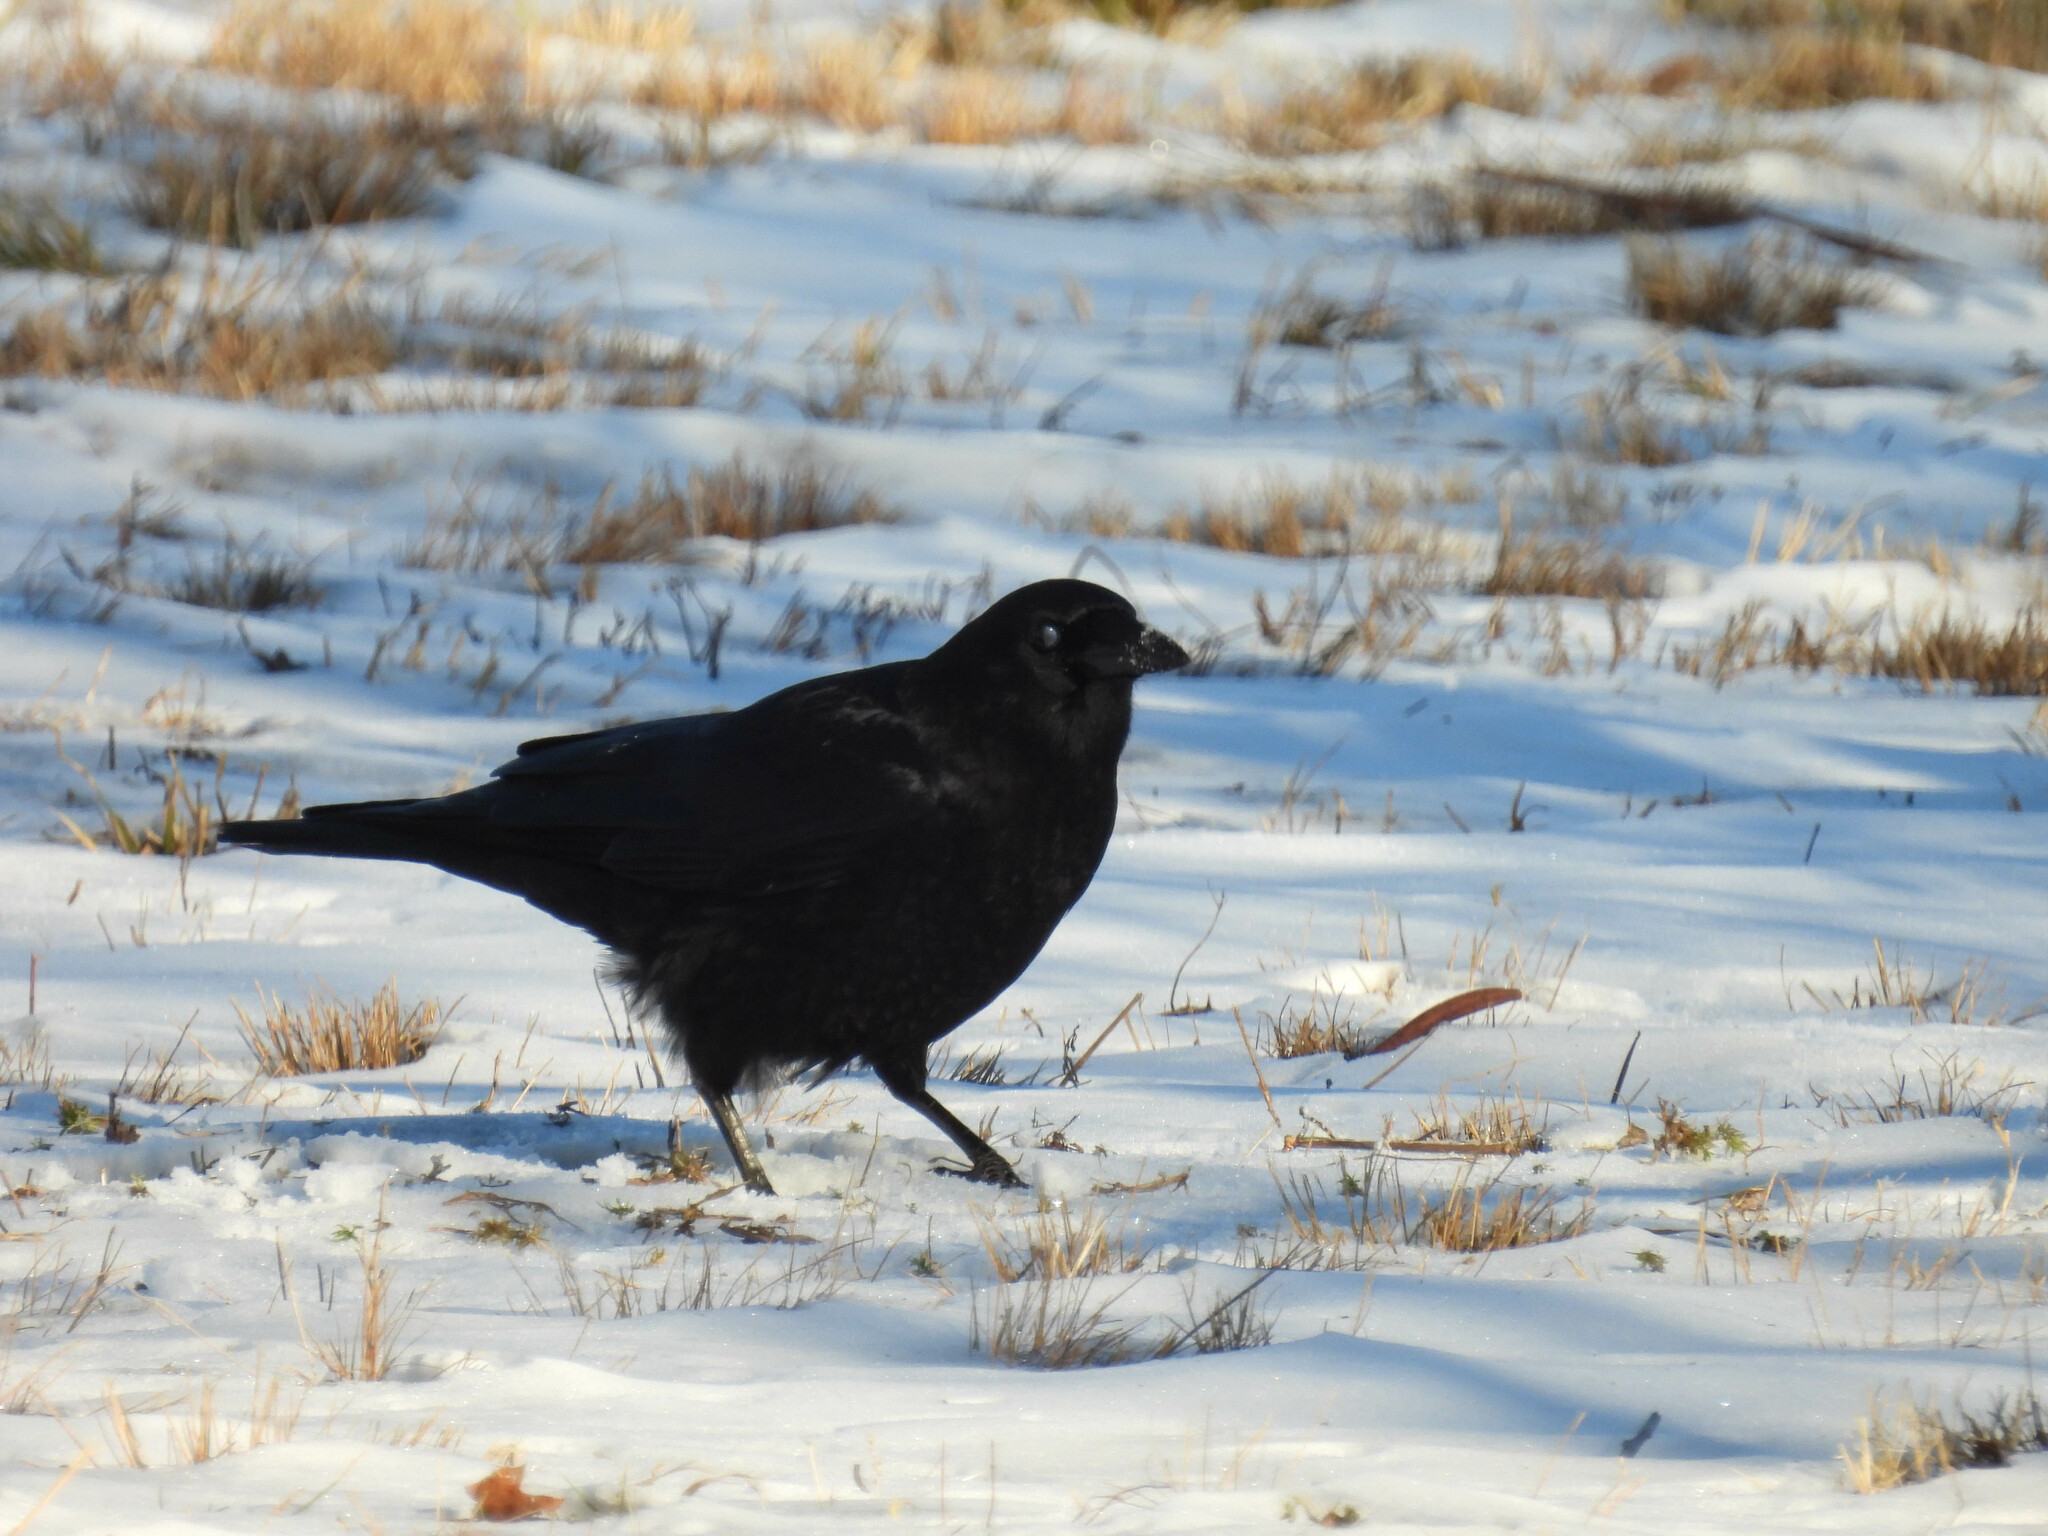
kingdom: Animalia
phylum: Chordata
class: Aves
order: Passeriformes
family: Corvidae
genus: Corvus
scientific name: Corvus brachyrhynchos
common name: American crow
